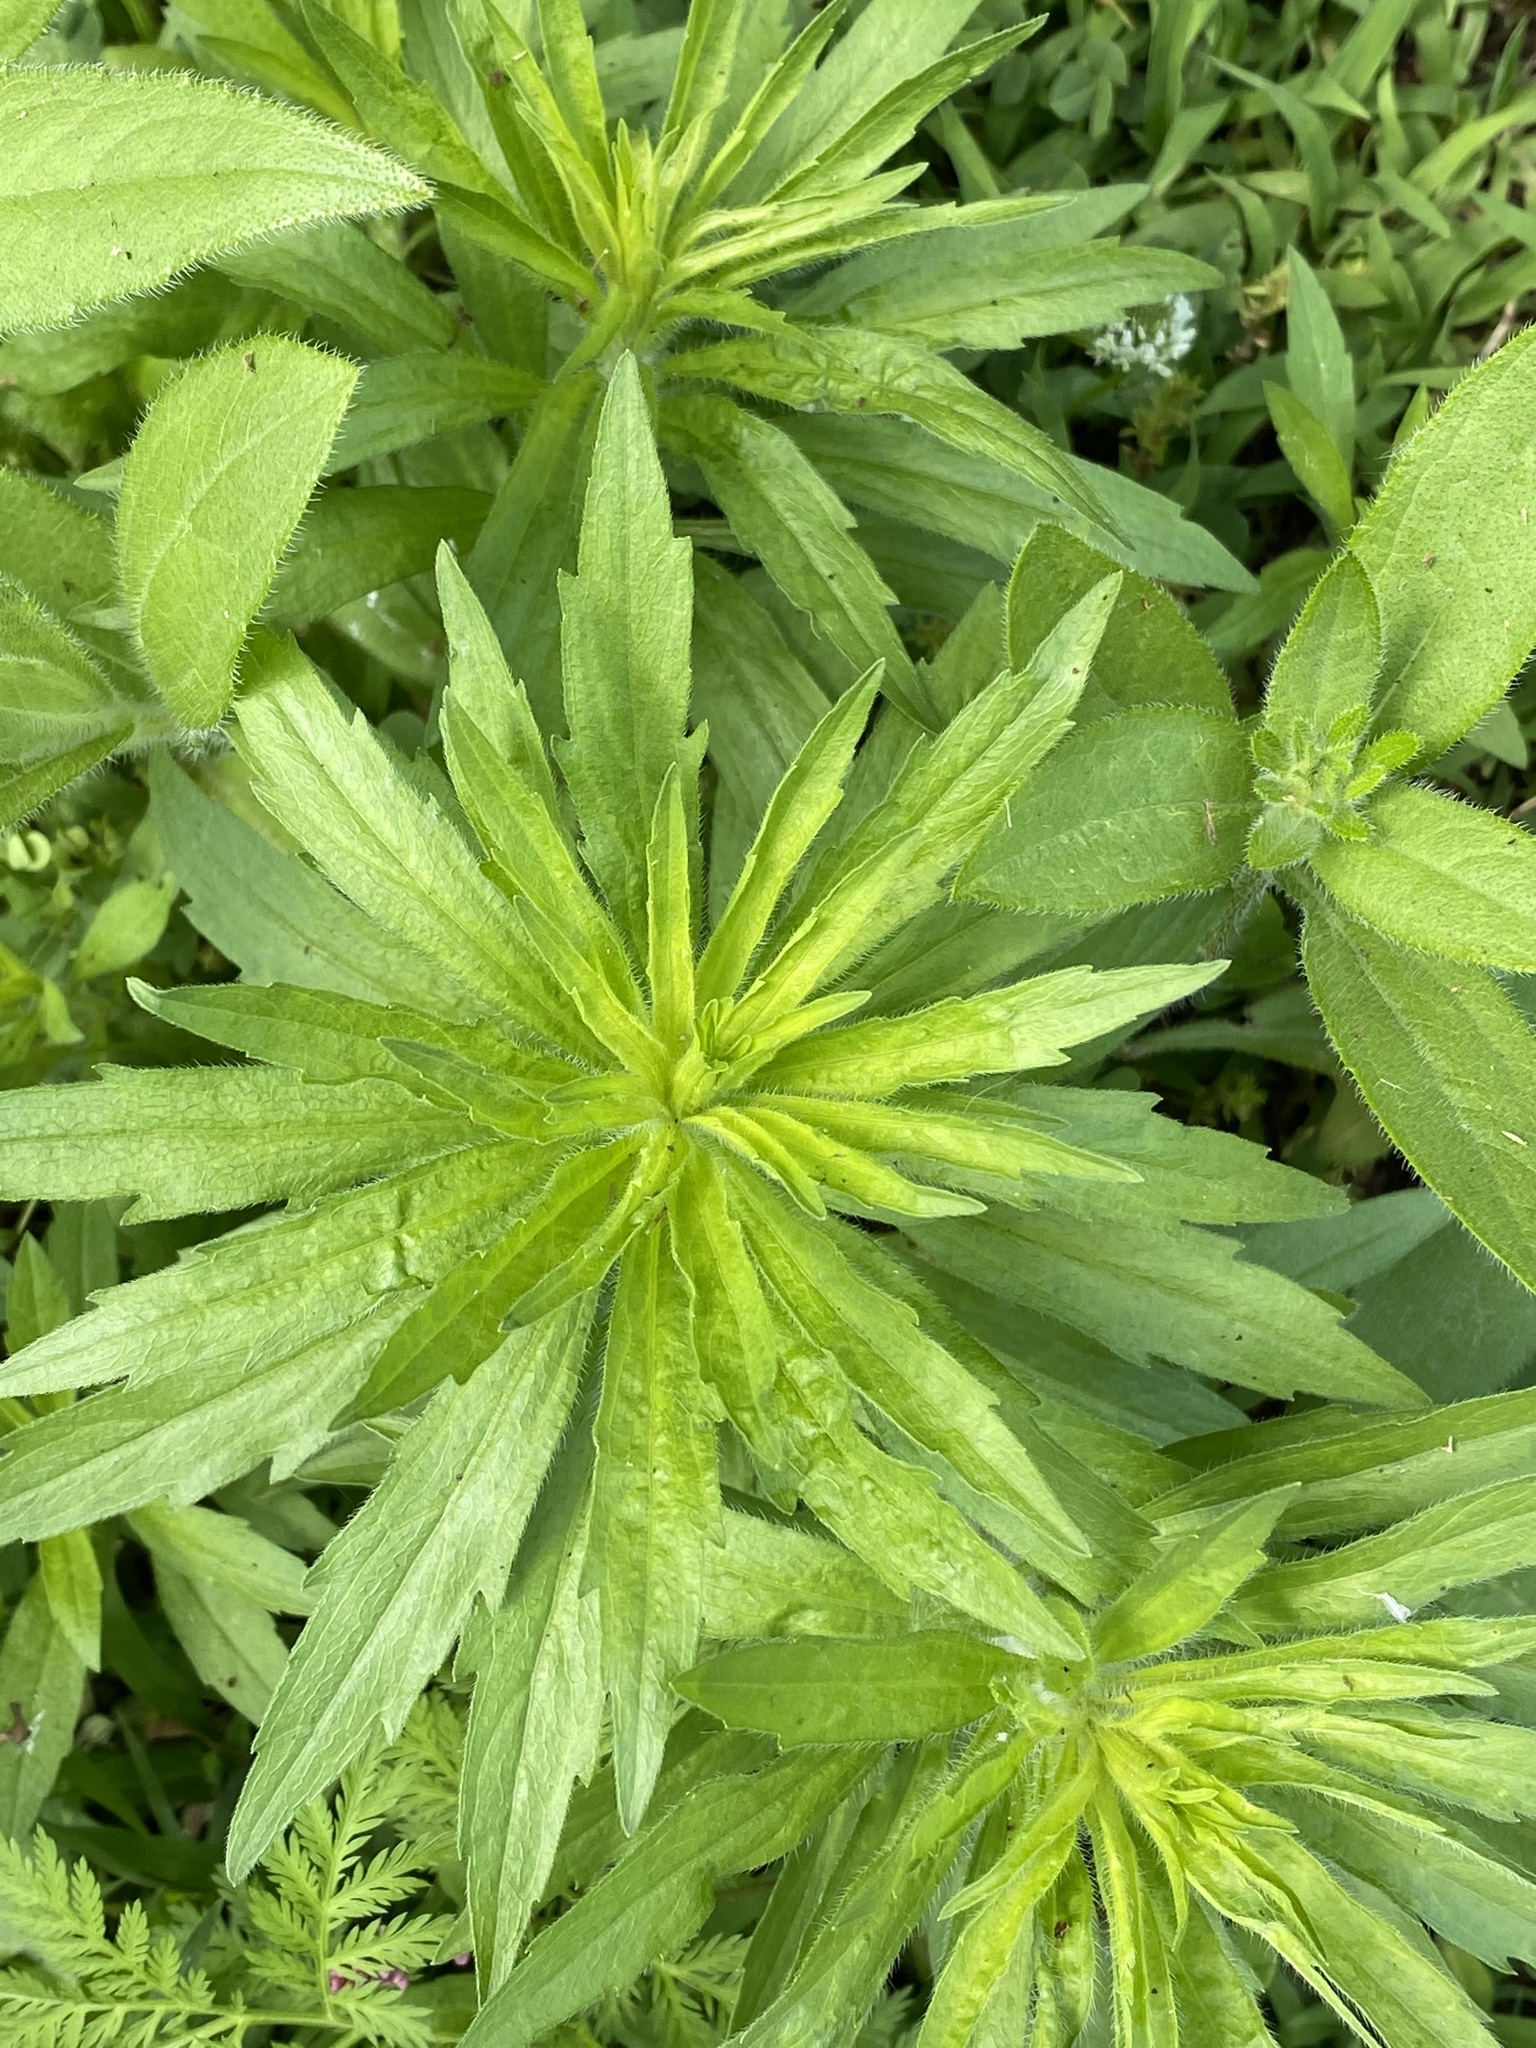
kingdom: Plantae
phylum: Tracheophyta
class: Magnoliopsida
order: Asterales
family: Asteraceae
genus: Erigeron
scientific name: Erigeron canadensis
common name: Canadian fleabane
